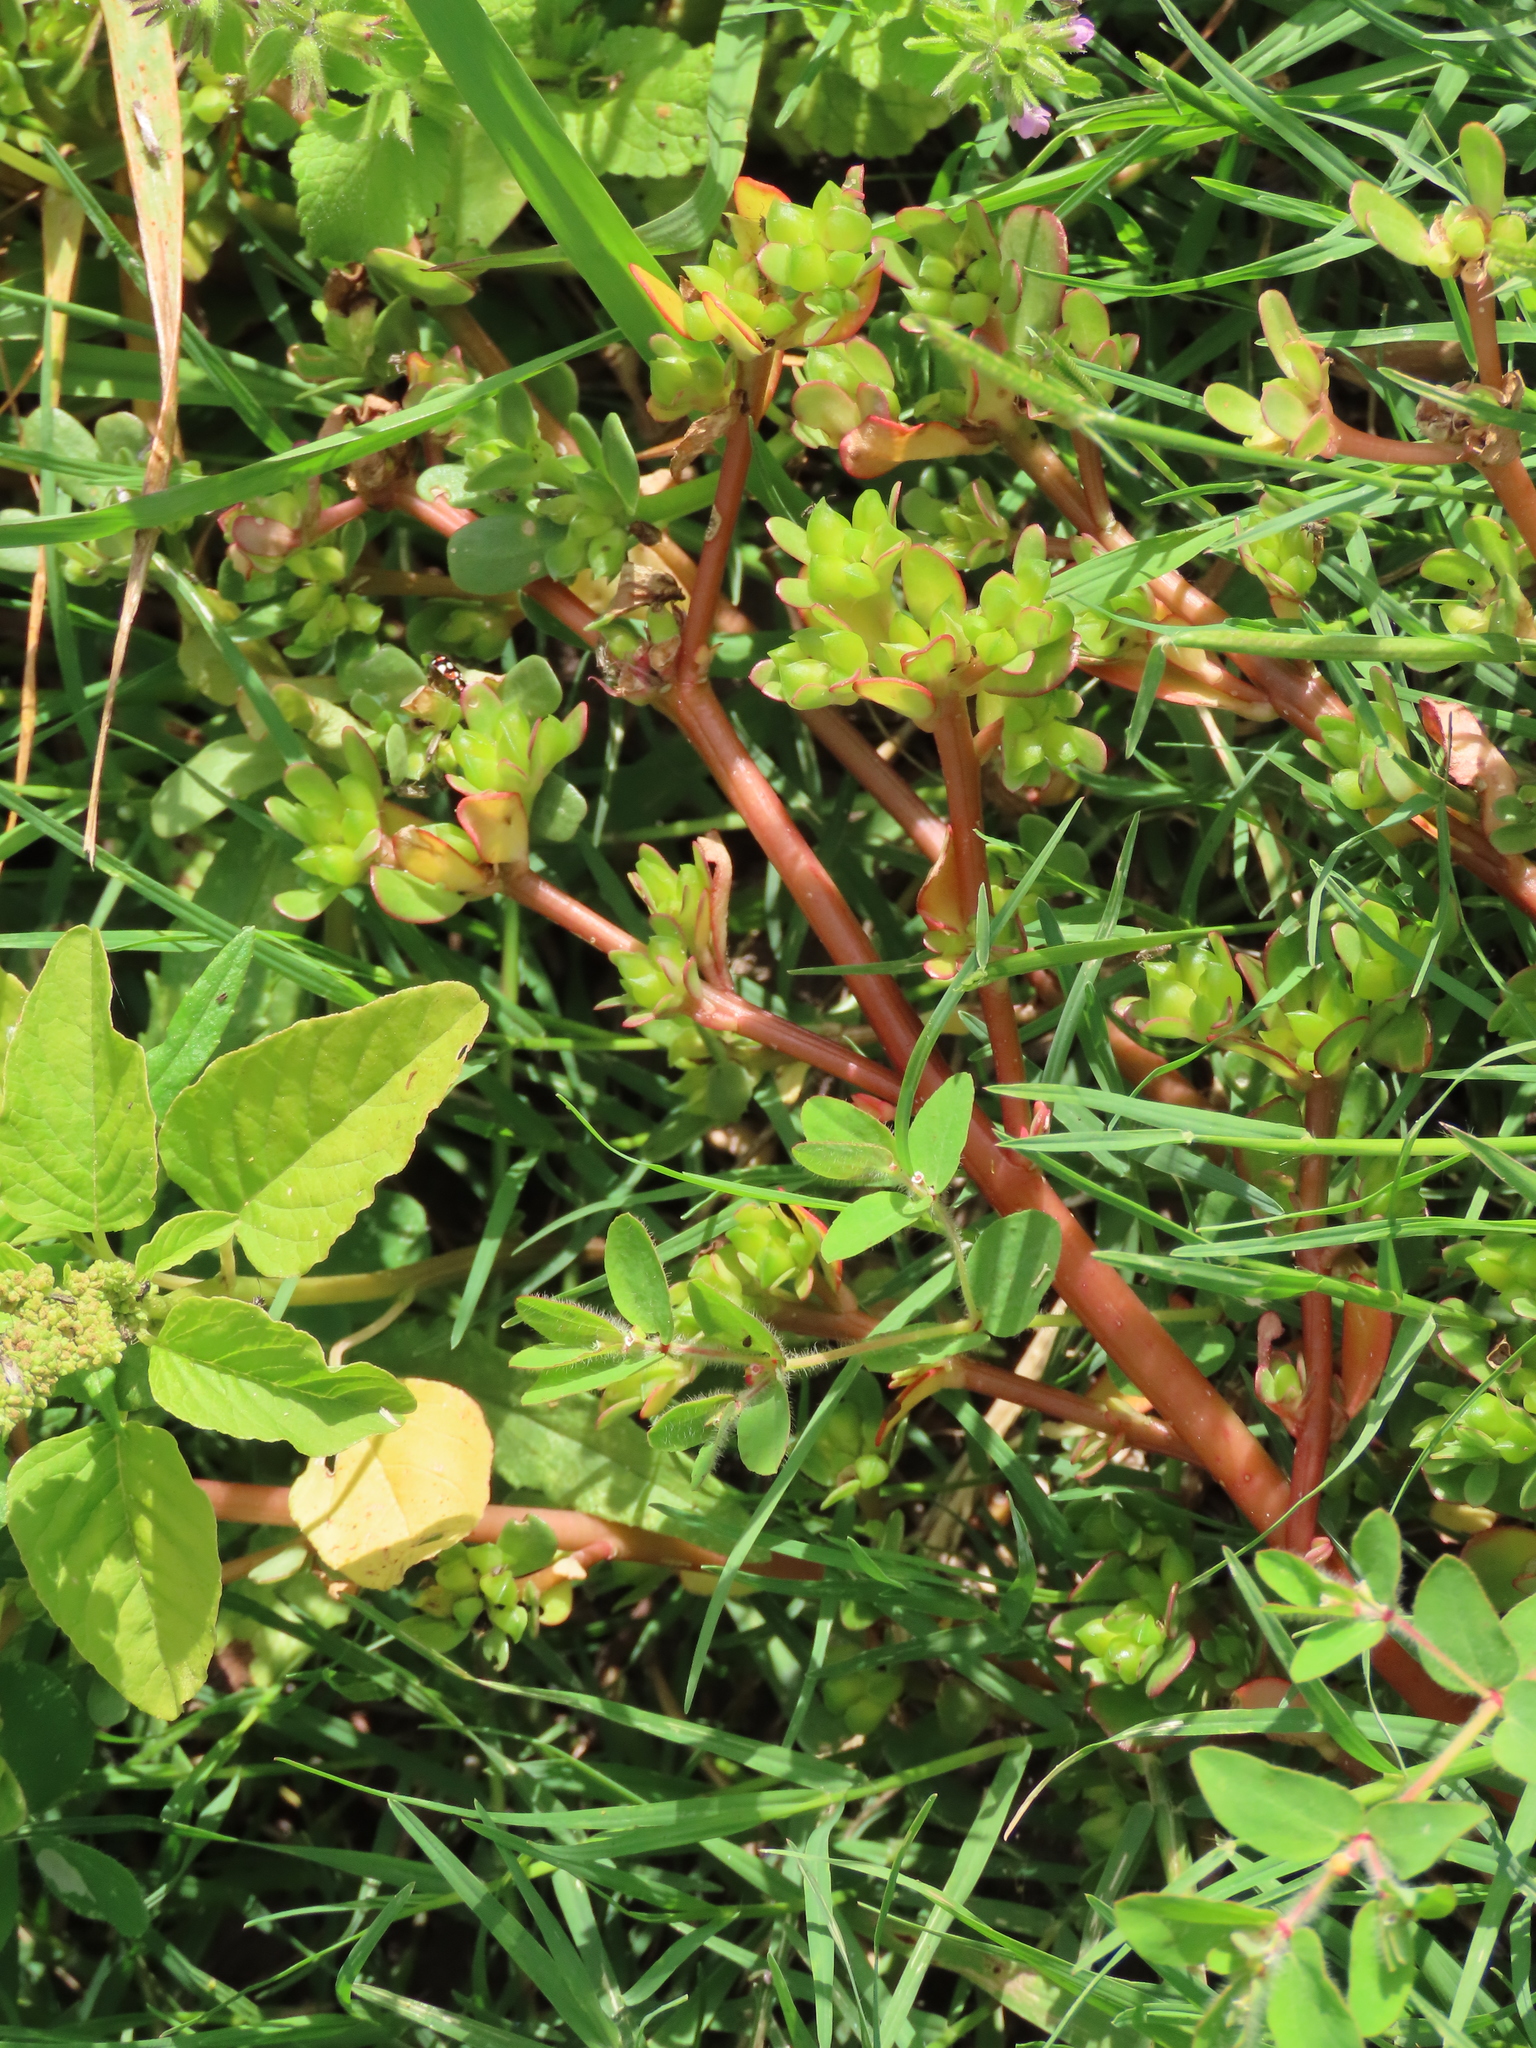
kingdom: Plantae
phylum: Tracheophyta
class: Magnoliopsida
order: Caryophyllales
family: Portulacaceae
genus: Portulaca
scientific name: Portulaca oleracea
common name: Common purslane
